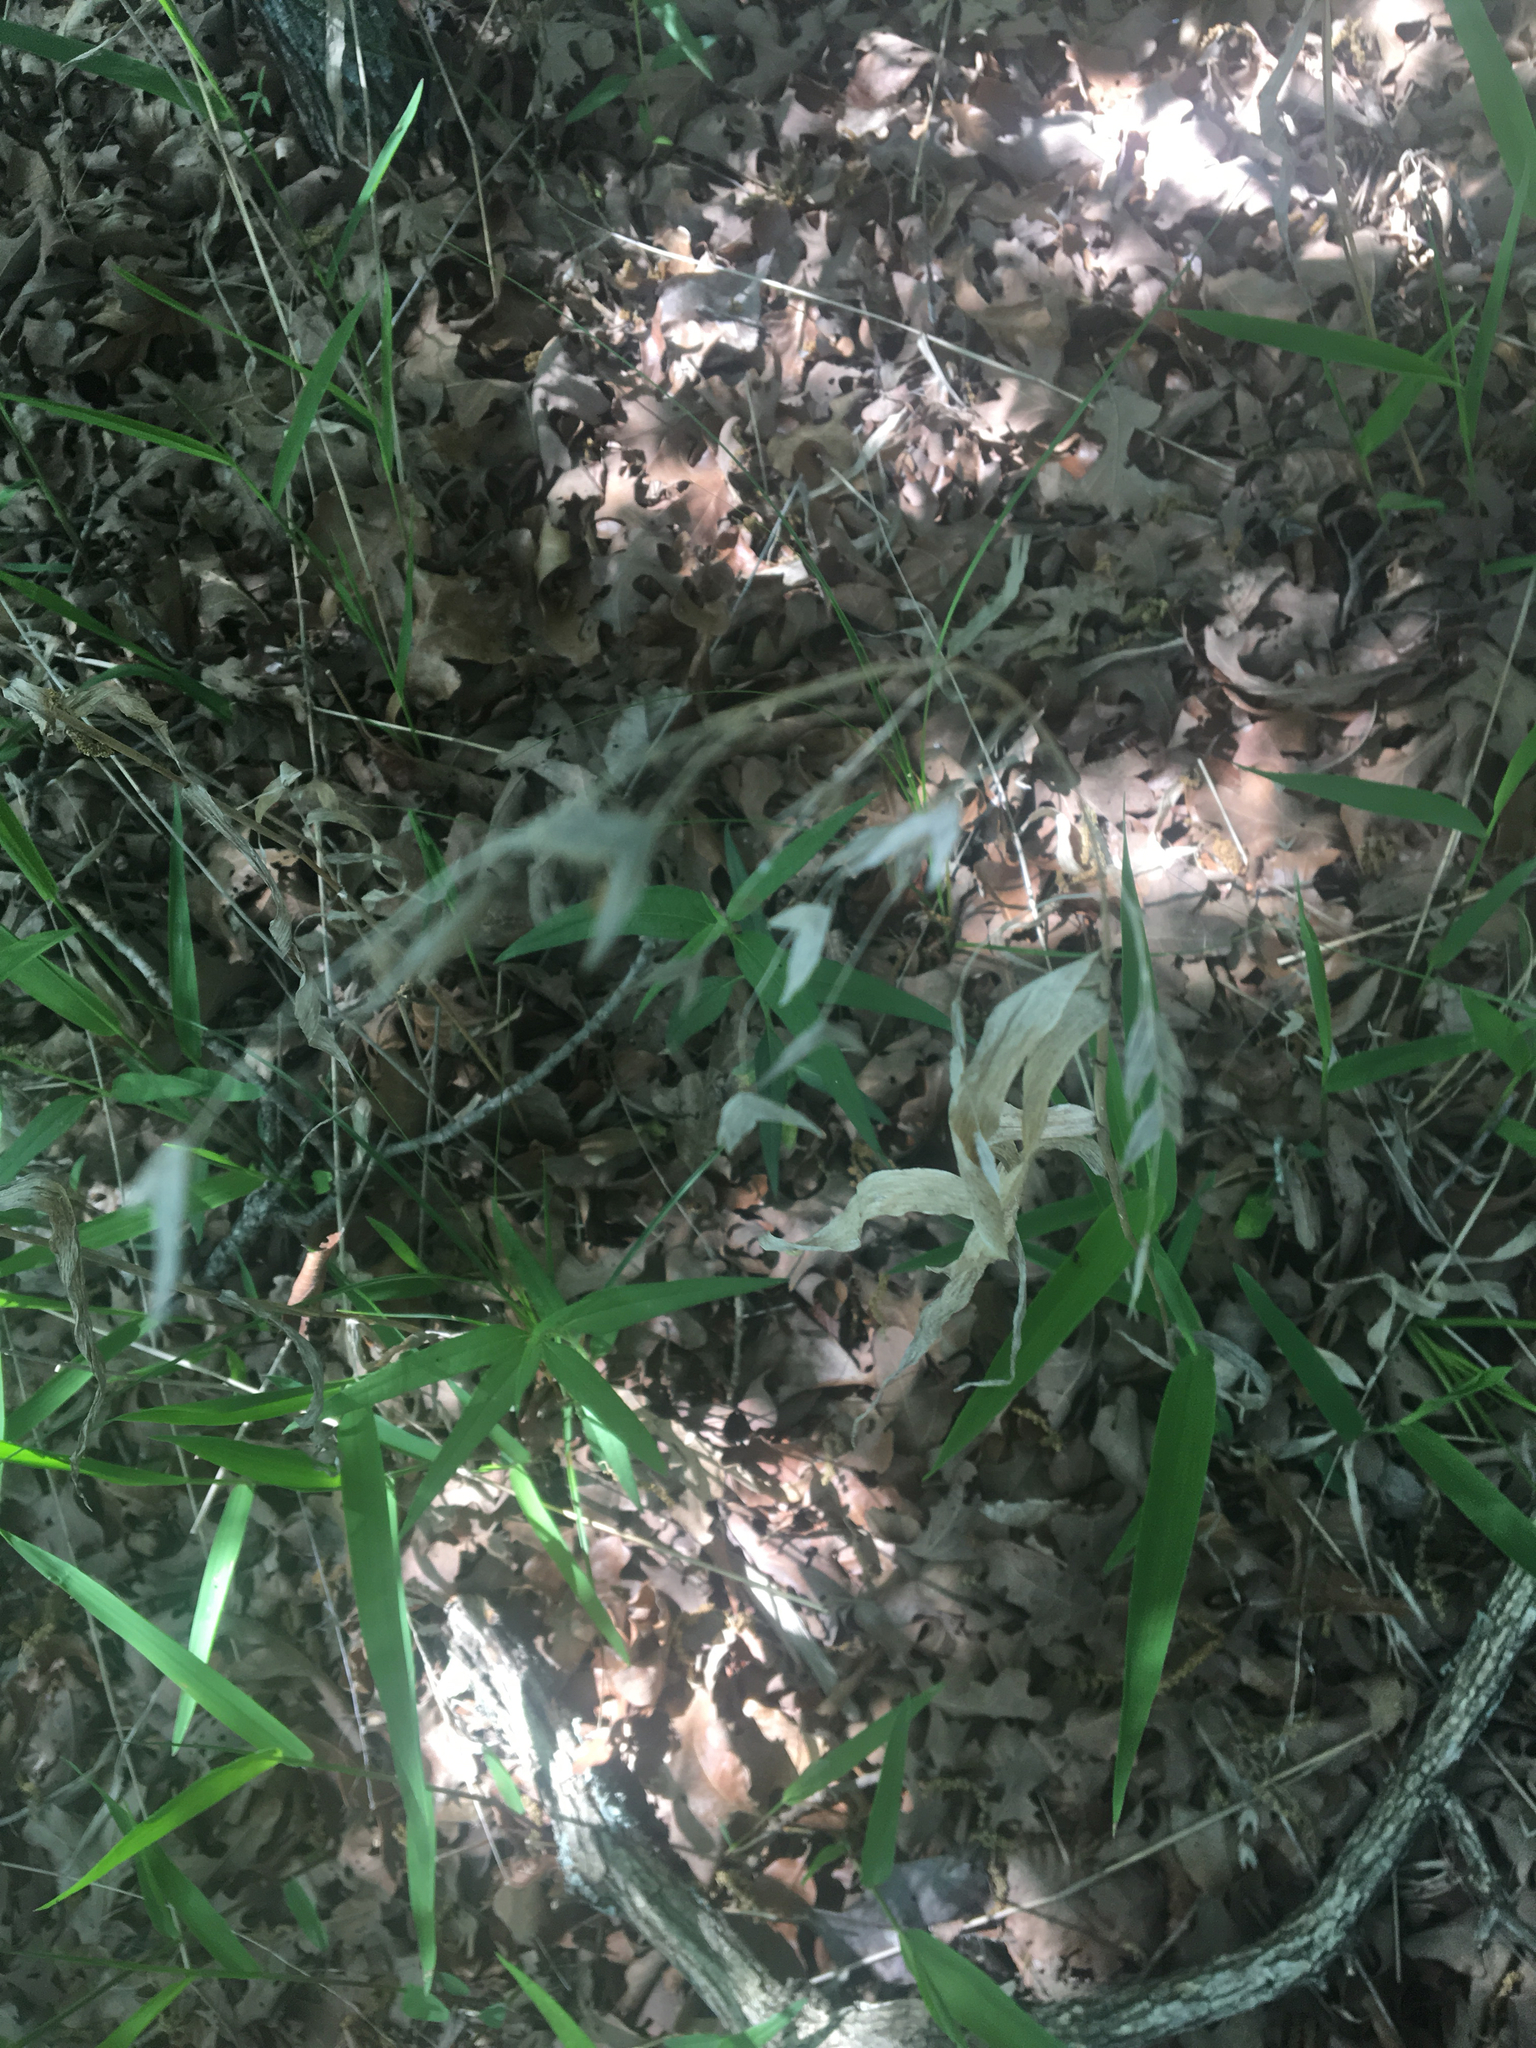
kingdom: Plantae
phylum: Tracheophyta
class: Liliopsida
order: Poales
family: Poaceae
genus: Chasmanthium
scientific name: Chasmanthium latifolium
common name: Broad-leaved chasmanthium
